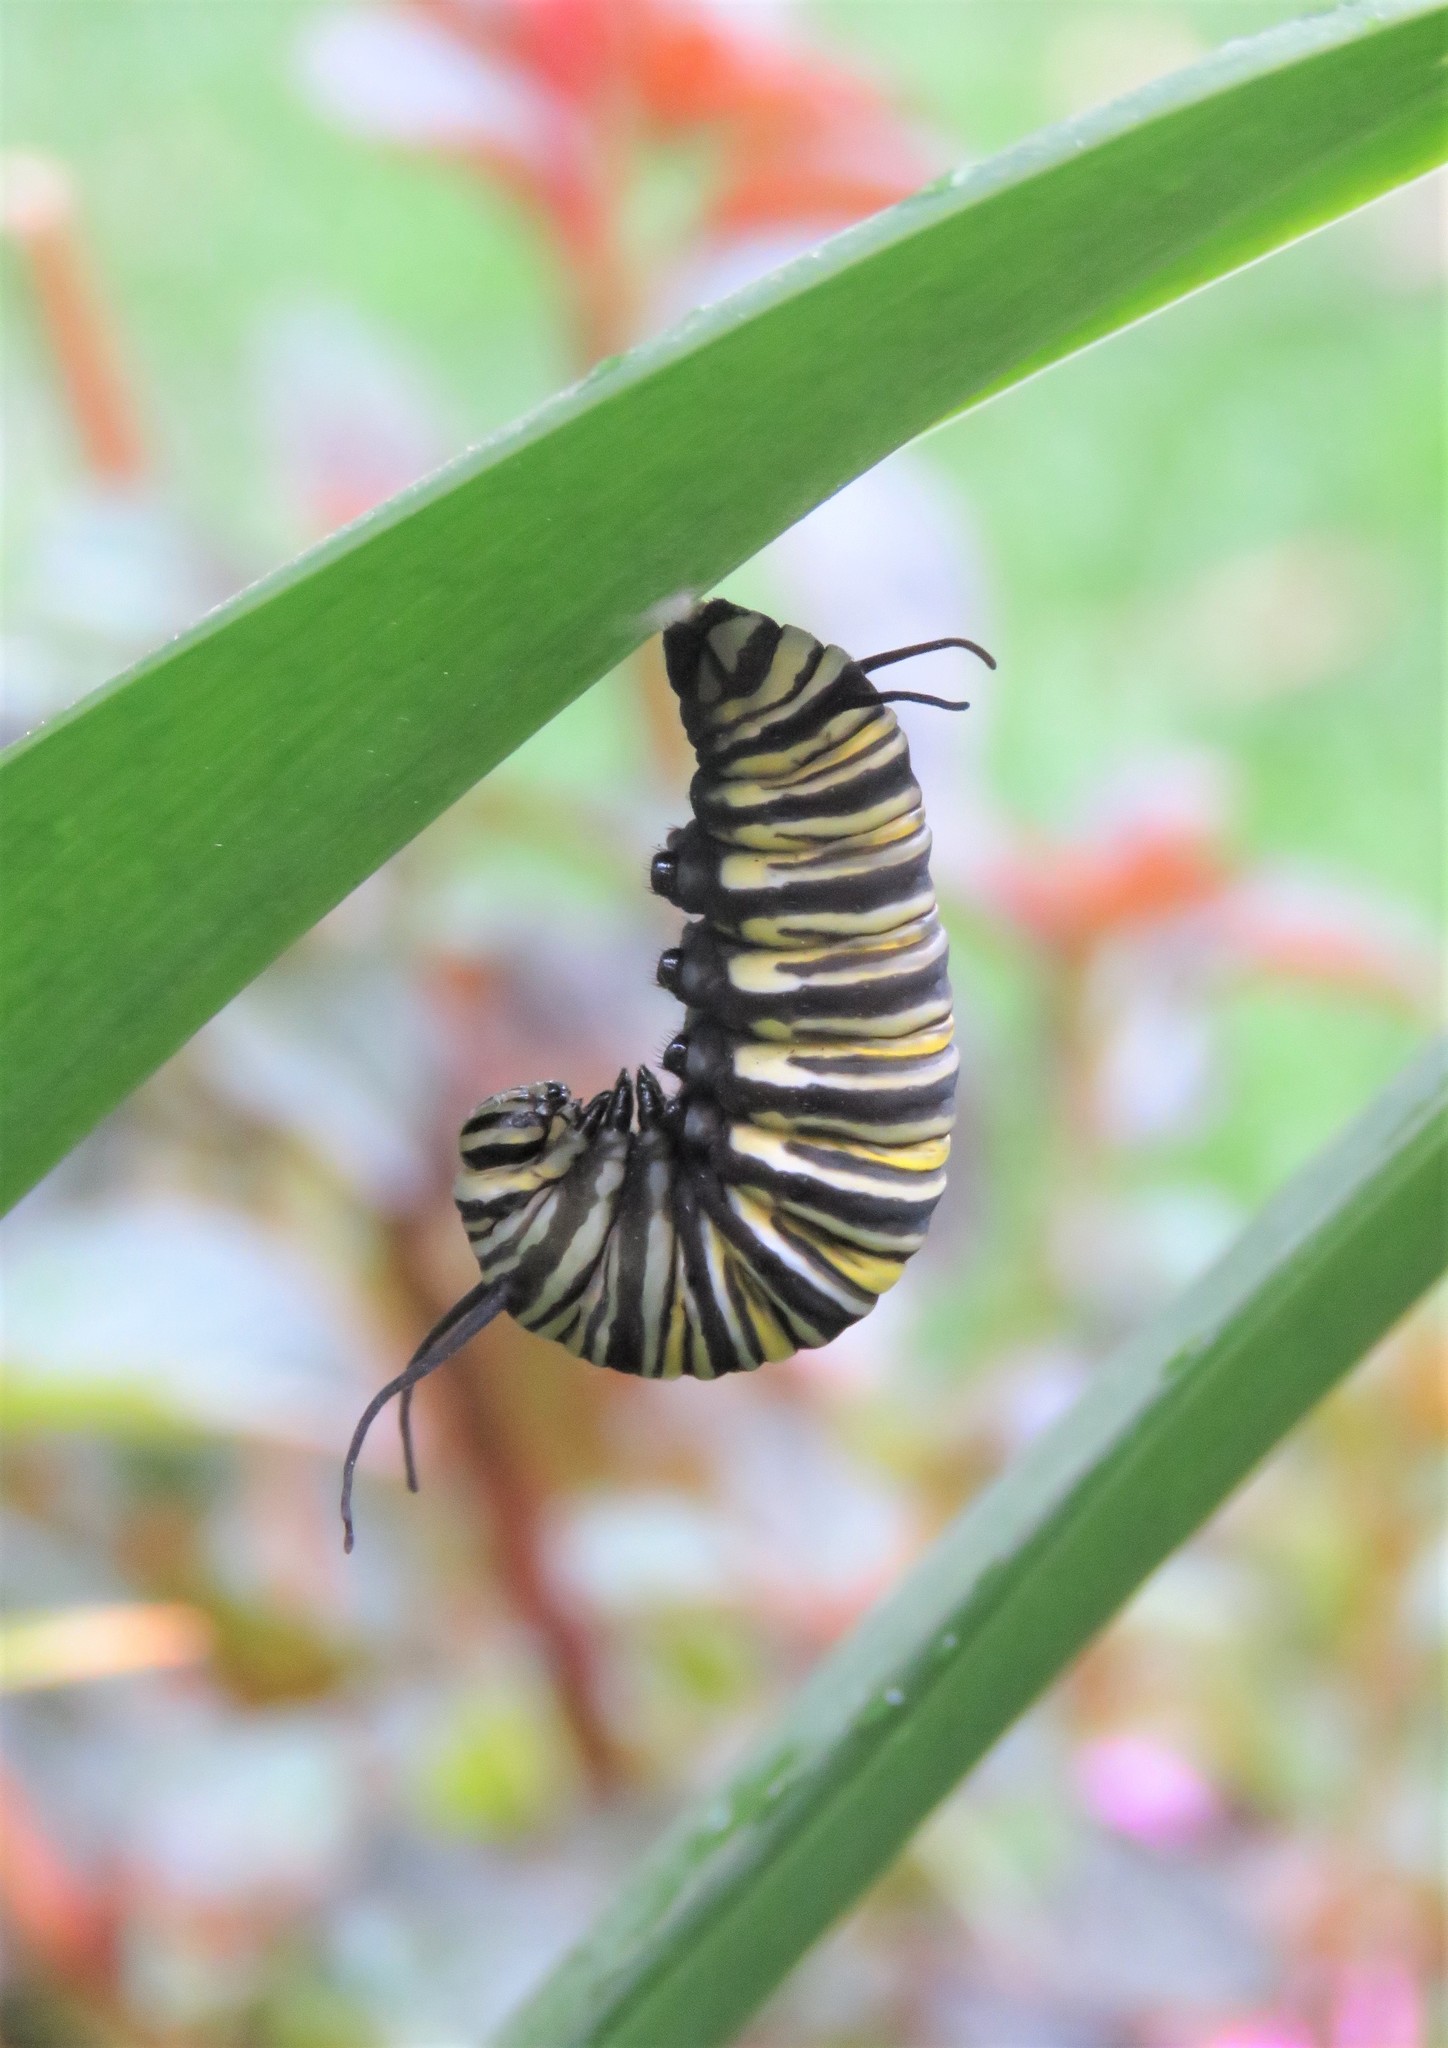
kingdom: Animalia
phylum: Arthropoda
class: Insecta
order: Lepidoptera
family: Nymphalidae
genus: Danaus
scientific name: Danaus plexippus
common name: Monarch
